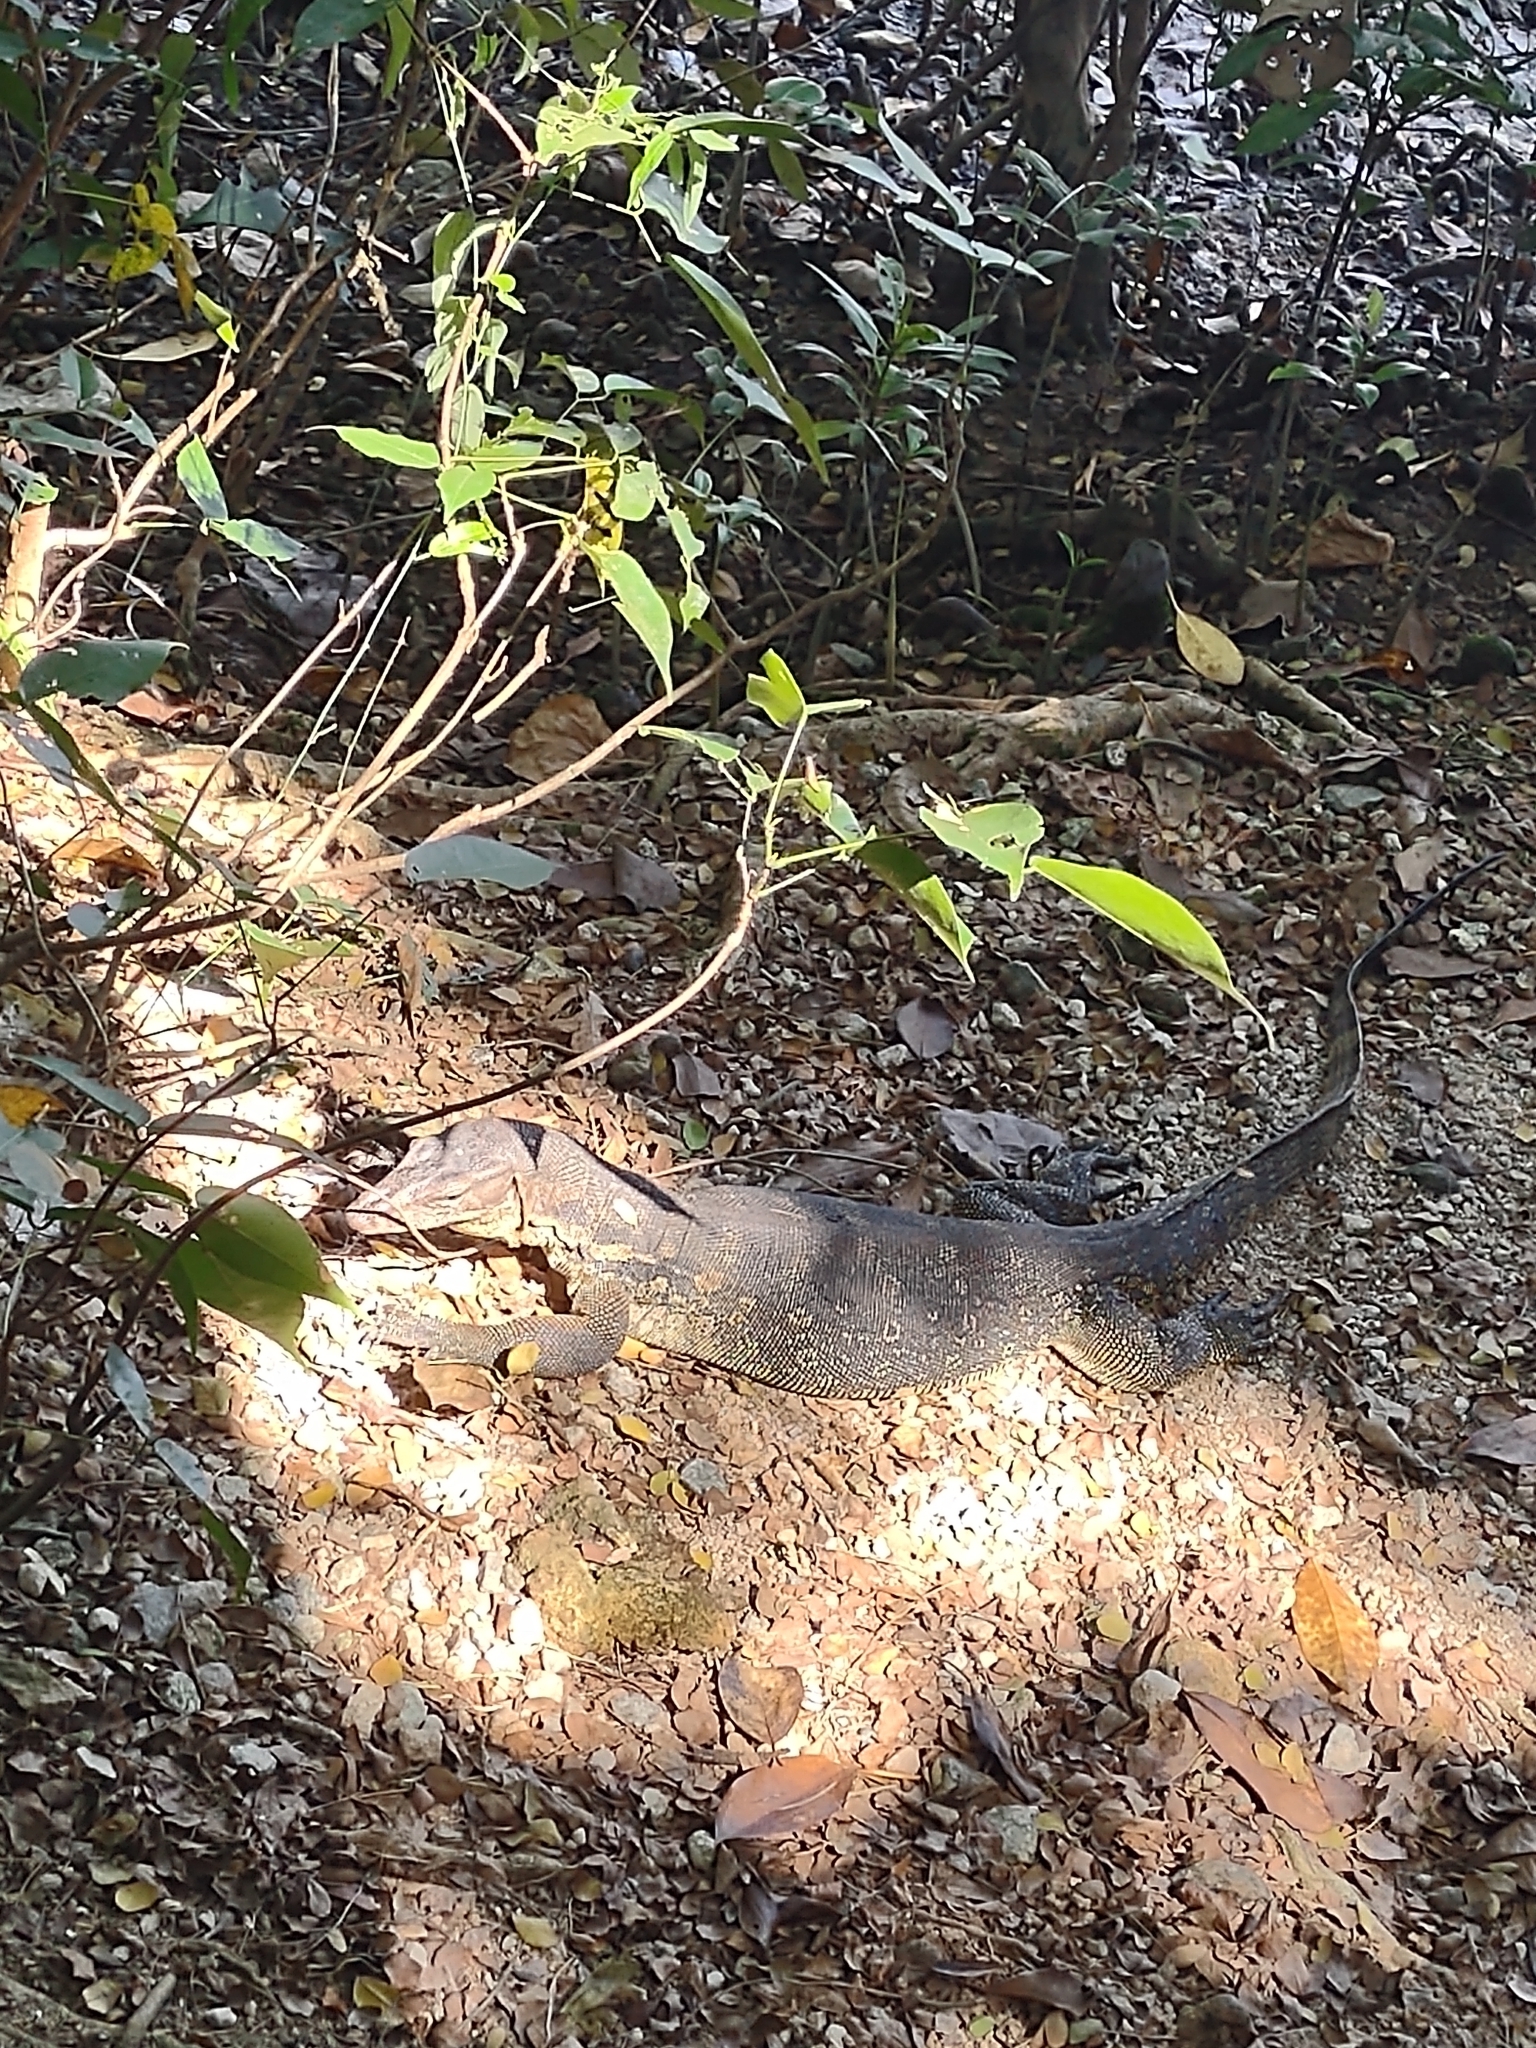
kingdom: Animalia
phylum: Chordata
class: Squamata
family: Varanidae
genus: Varanus
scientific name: Varanus salvator
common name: Common water monitor
